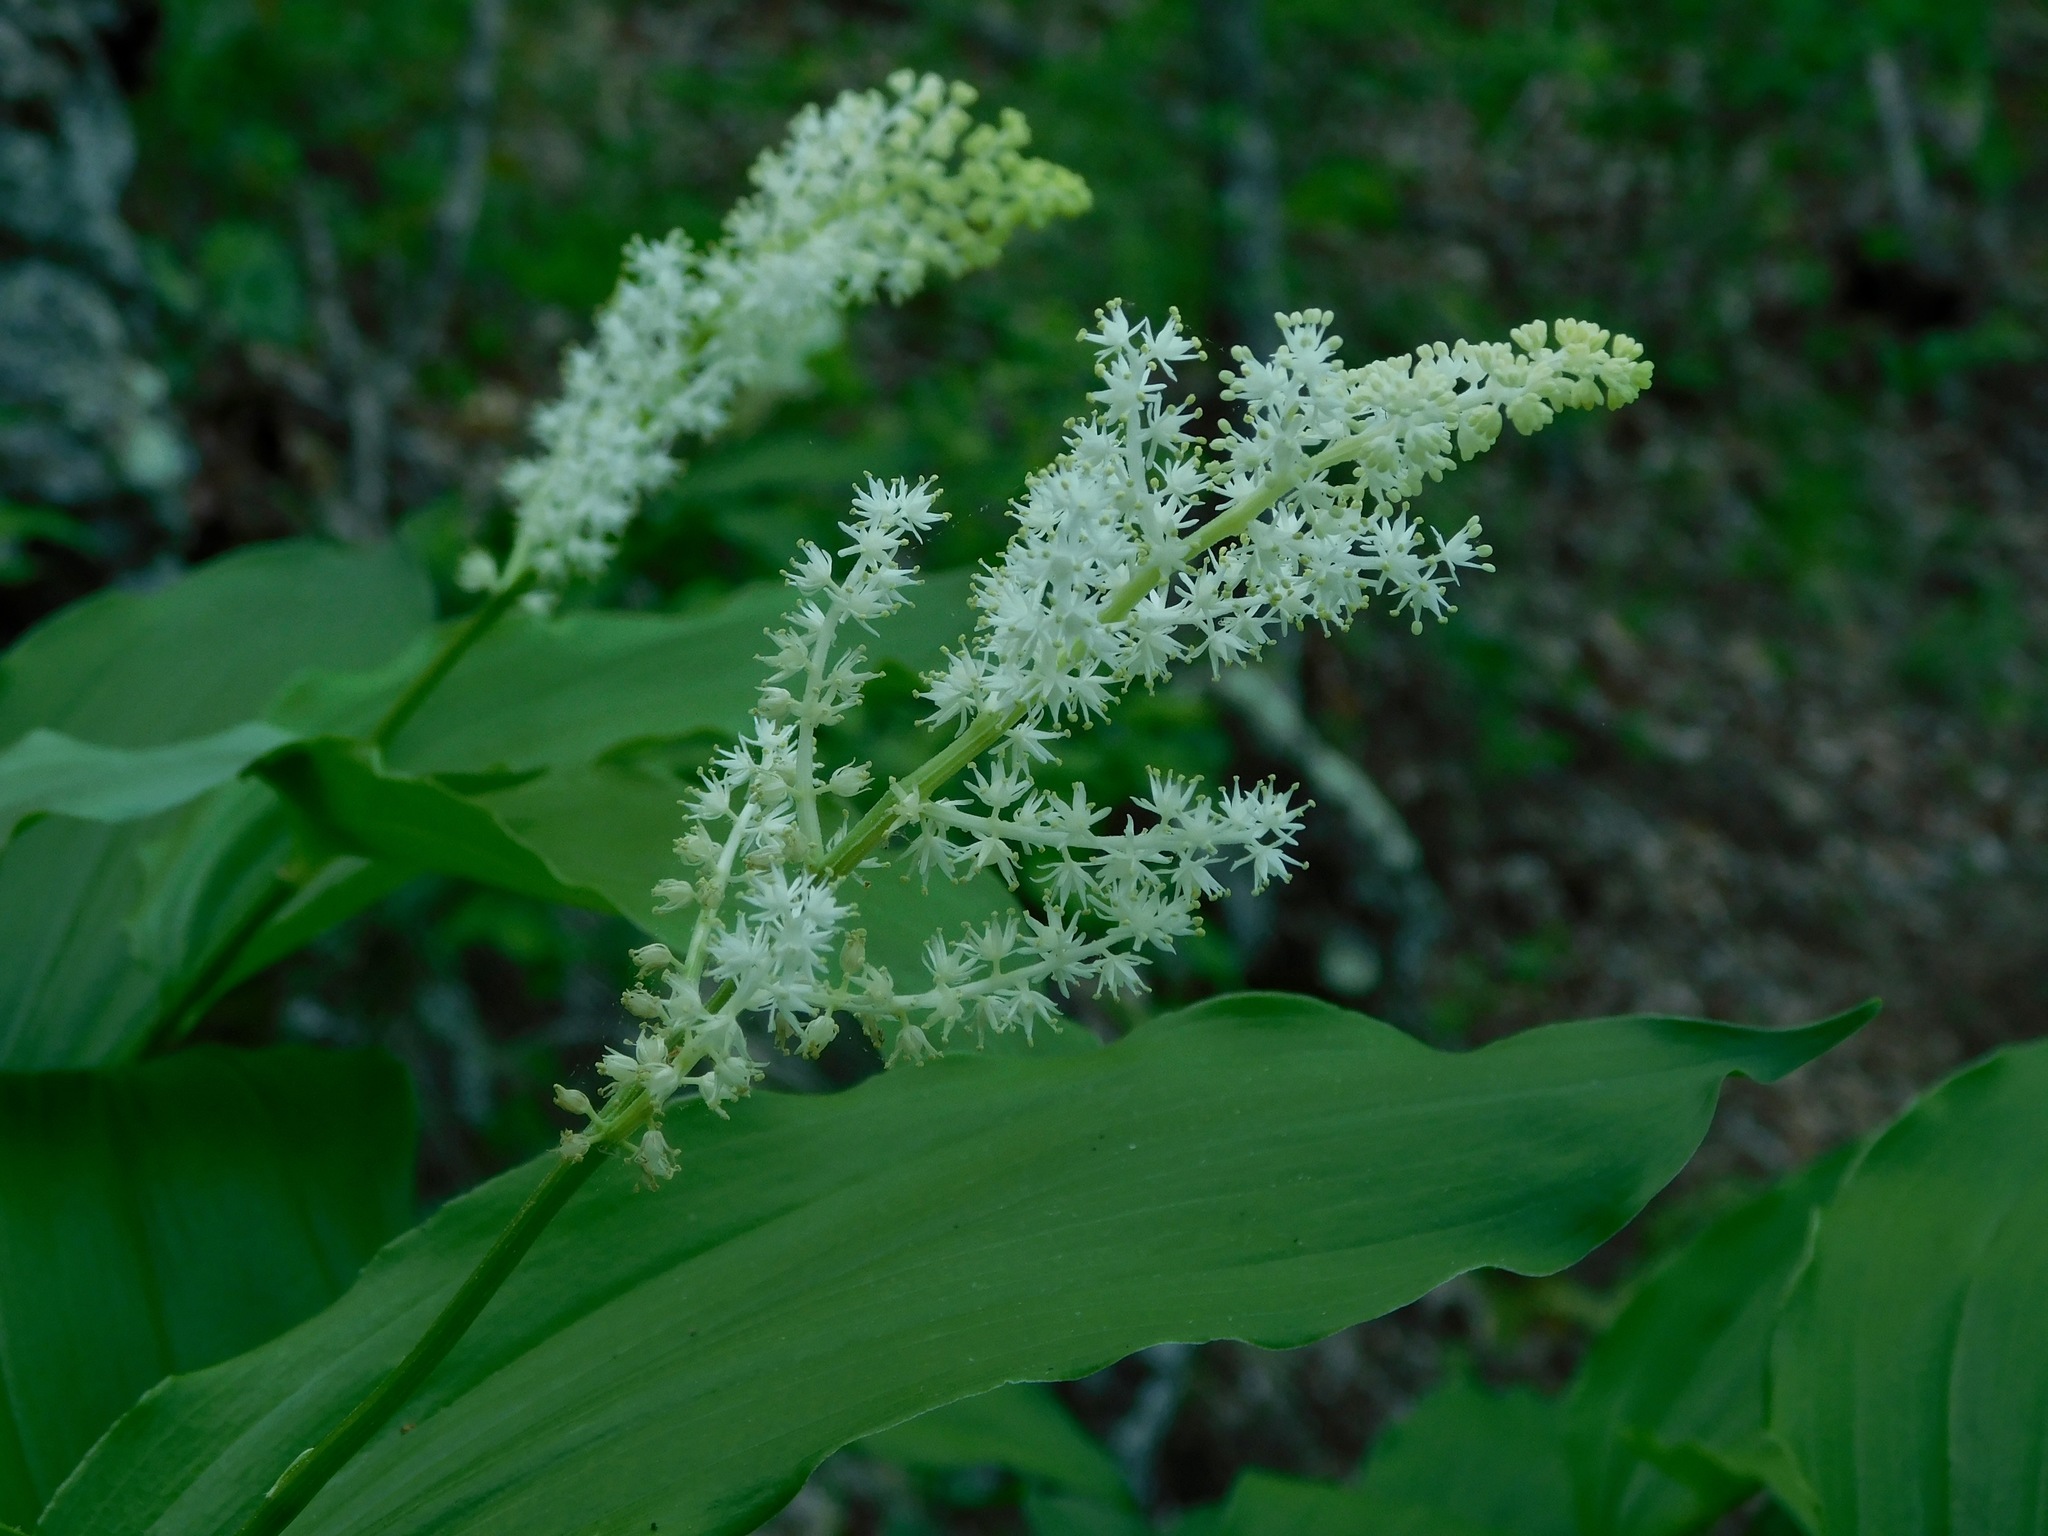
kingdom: Plantae
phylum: Tracheophyta
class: Liliopsida
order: Asparagales
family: Asparagaceae
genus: Maianthemum
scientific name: Maianthemum racemosum
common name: False spikenard
